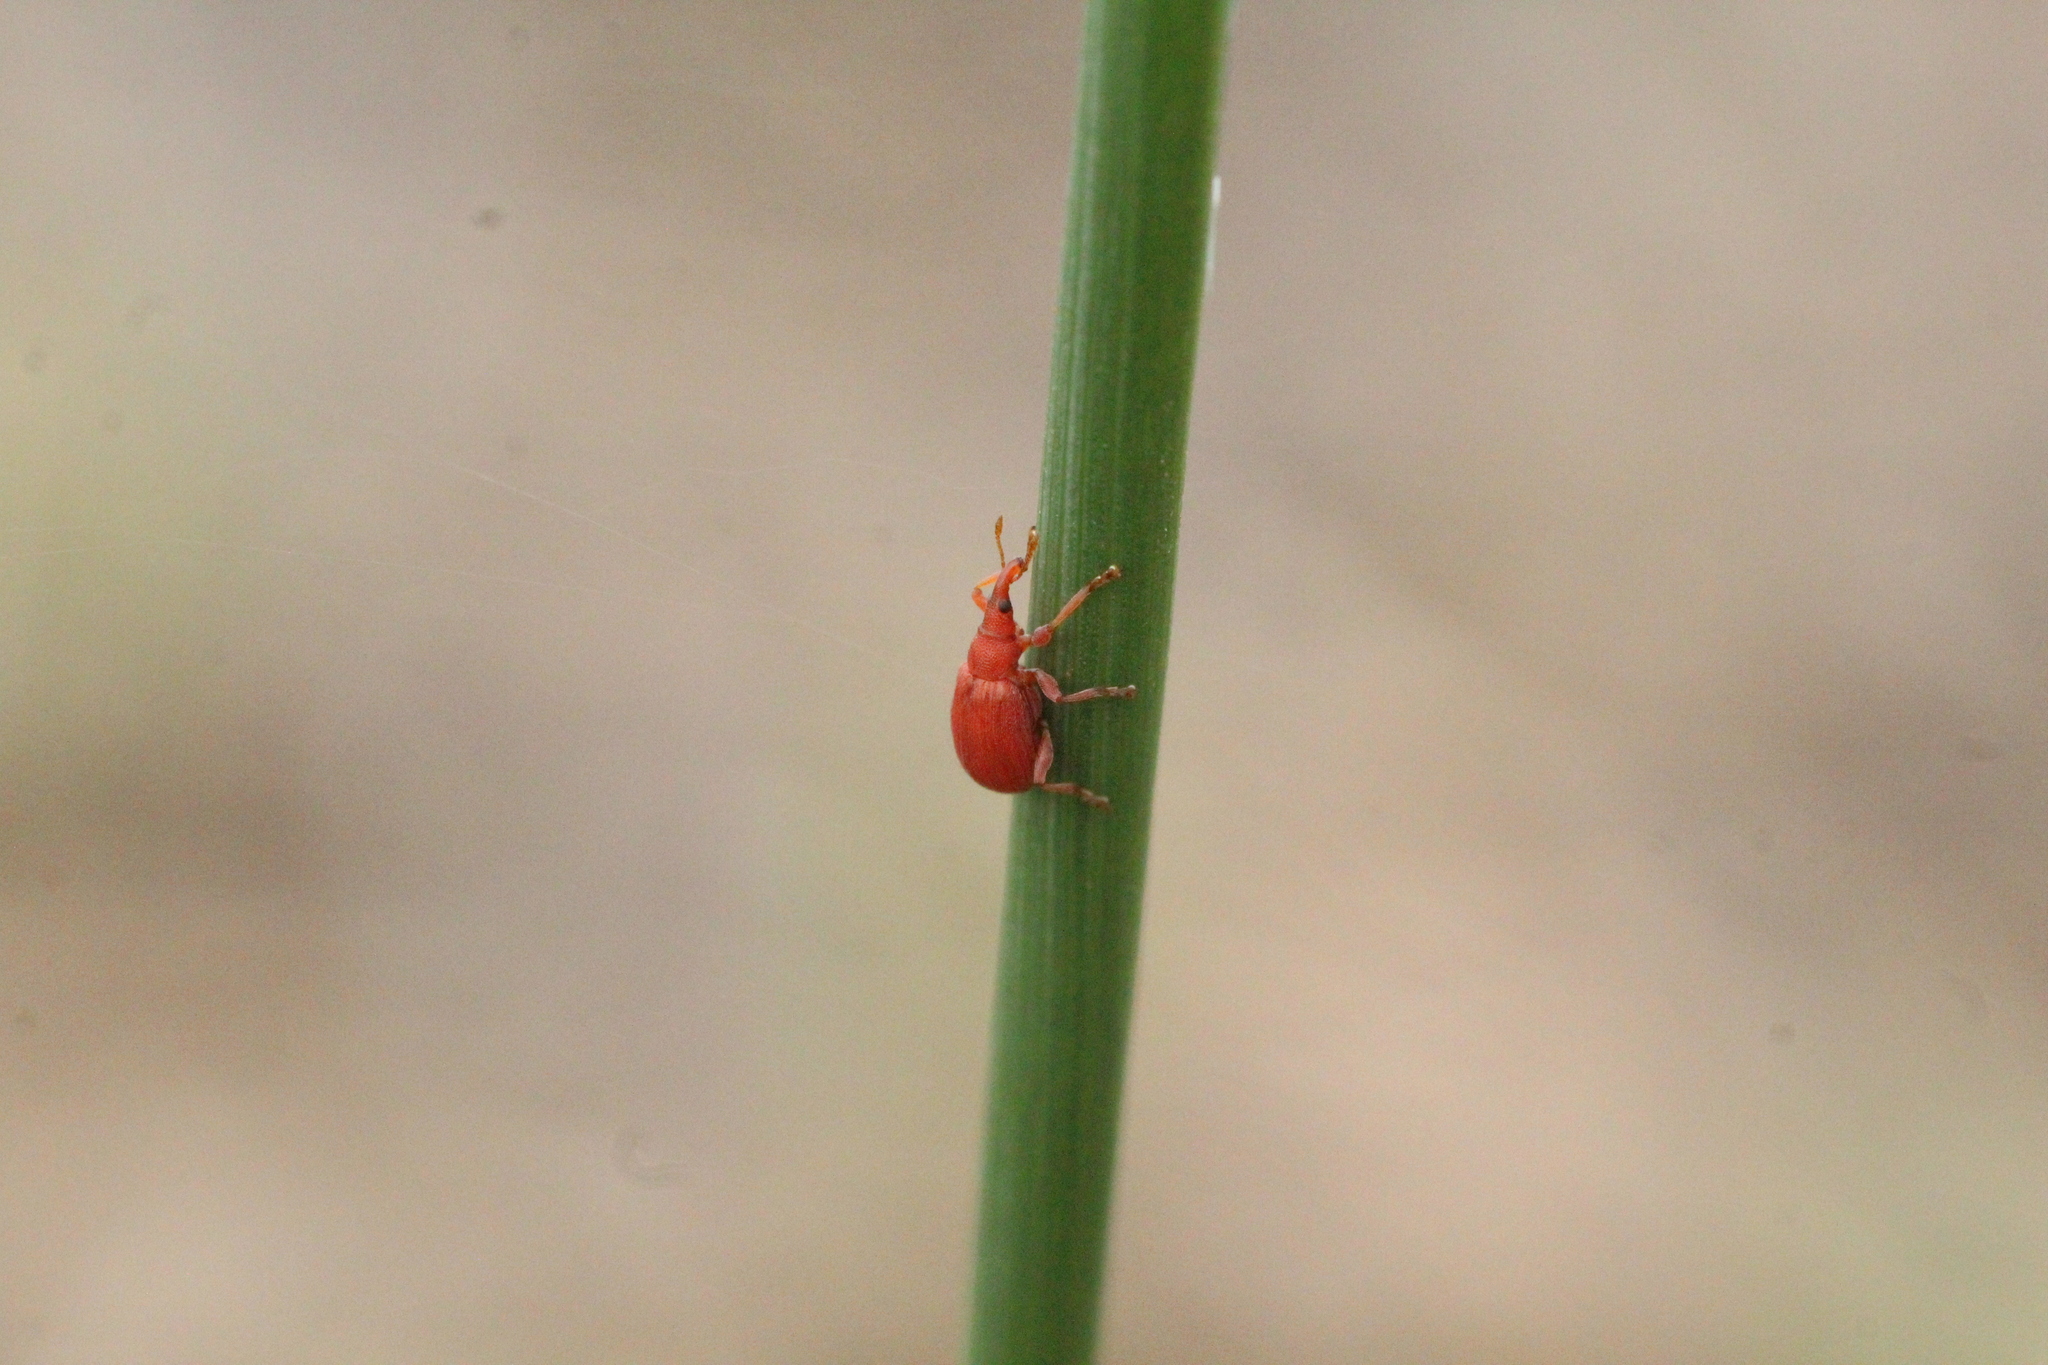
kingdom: Animalia
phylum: Arthropoda
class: Insecta
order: Coleoptera
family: Apionidae
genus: Apion
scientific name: Apion frumentarium
